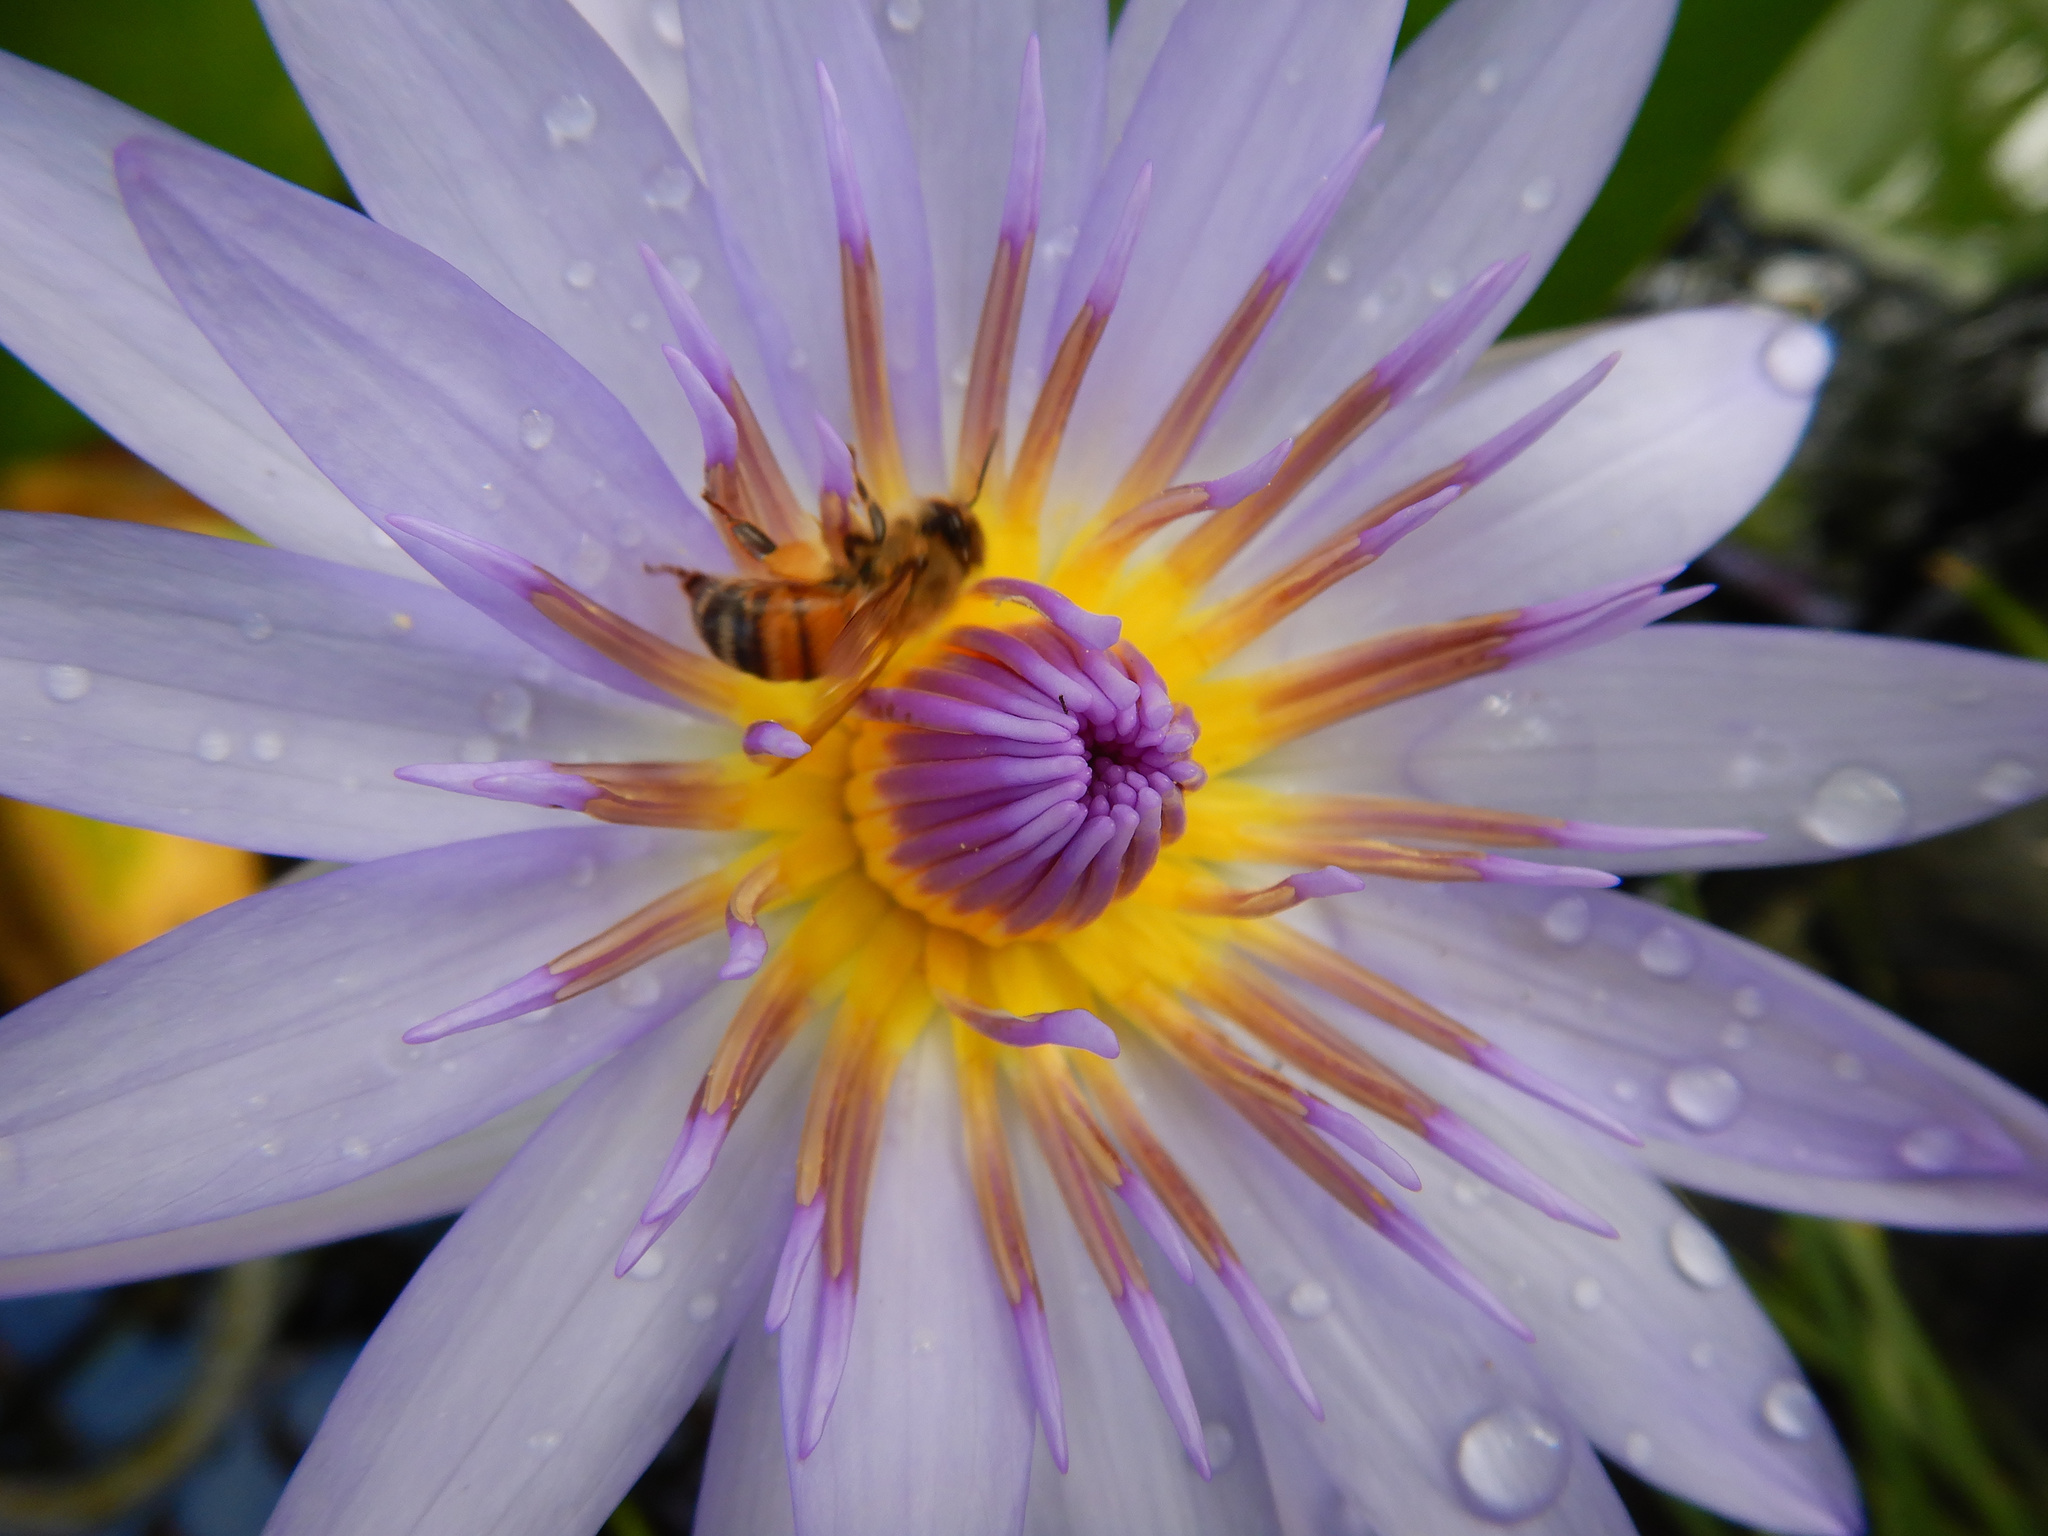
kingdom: Animalia
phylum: Arthropoda
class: Insecta
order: Hymenoptera
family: Apidae
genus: Apis
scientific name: Apis mellifera
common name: Honey bee
